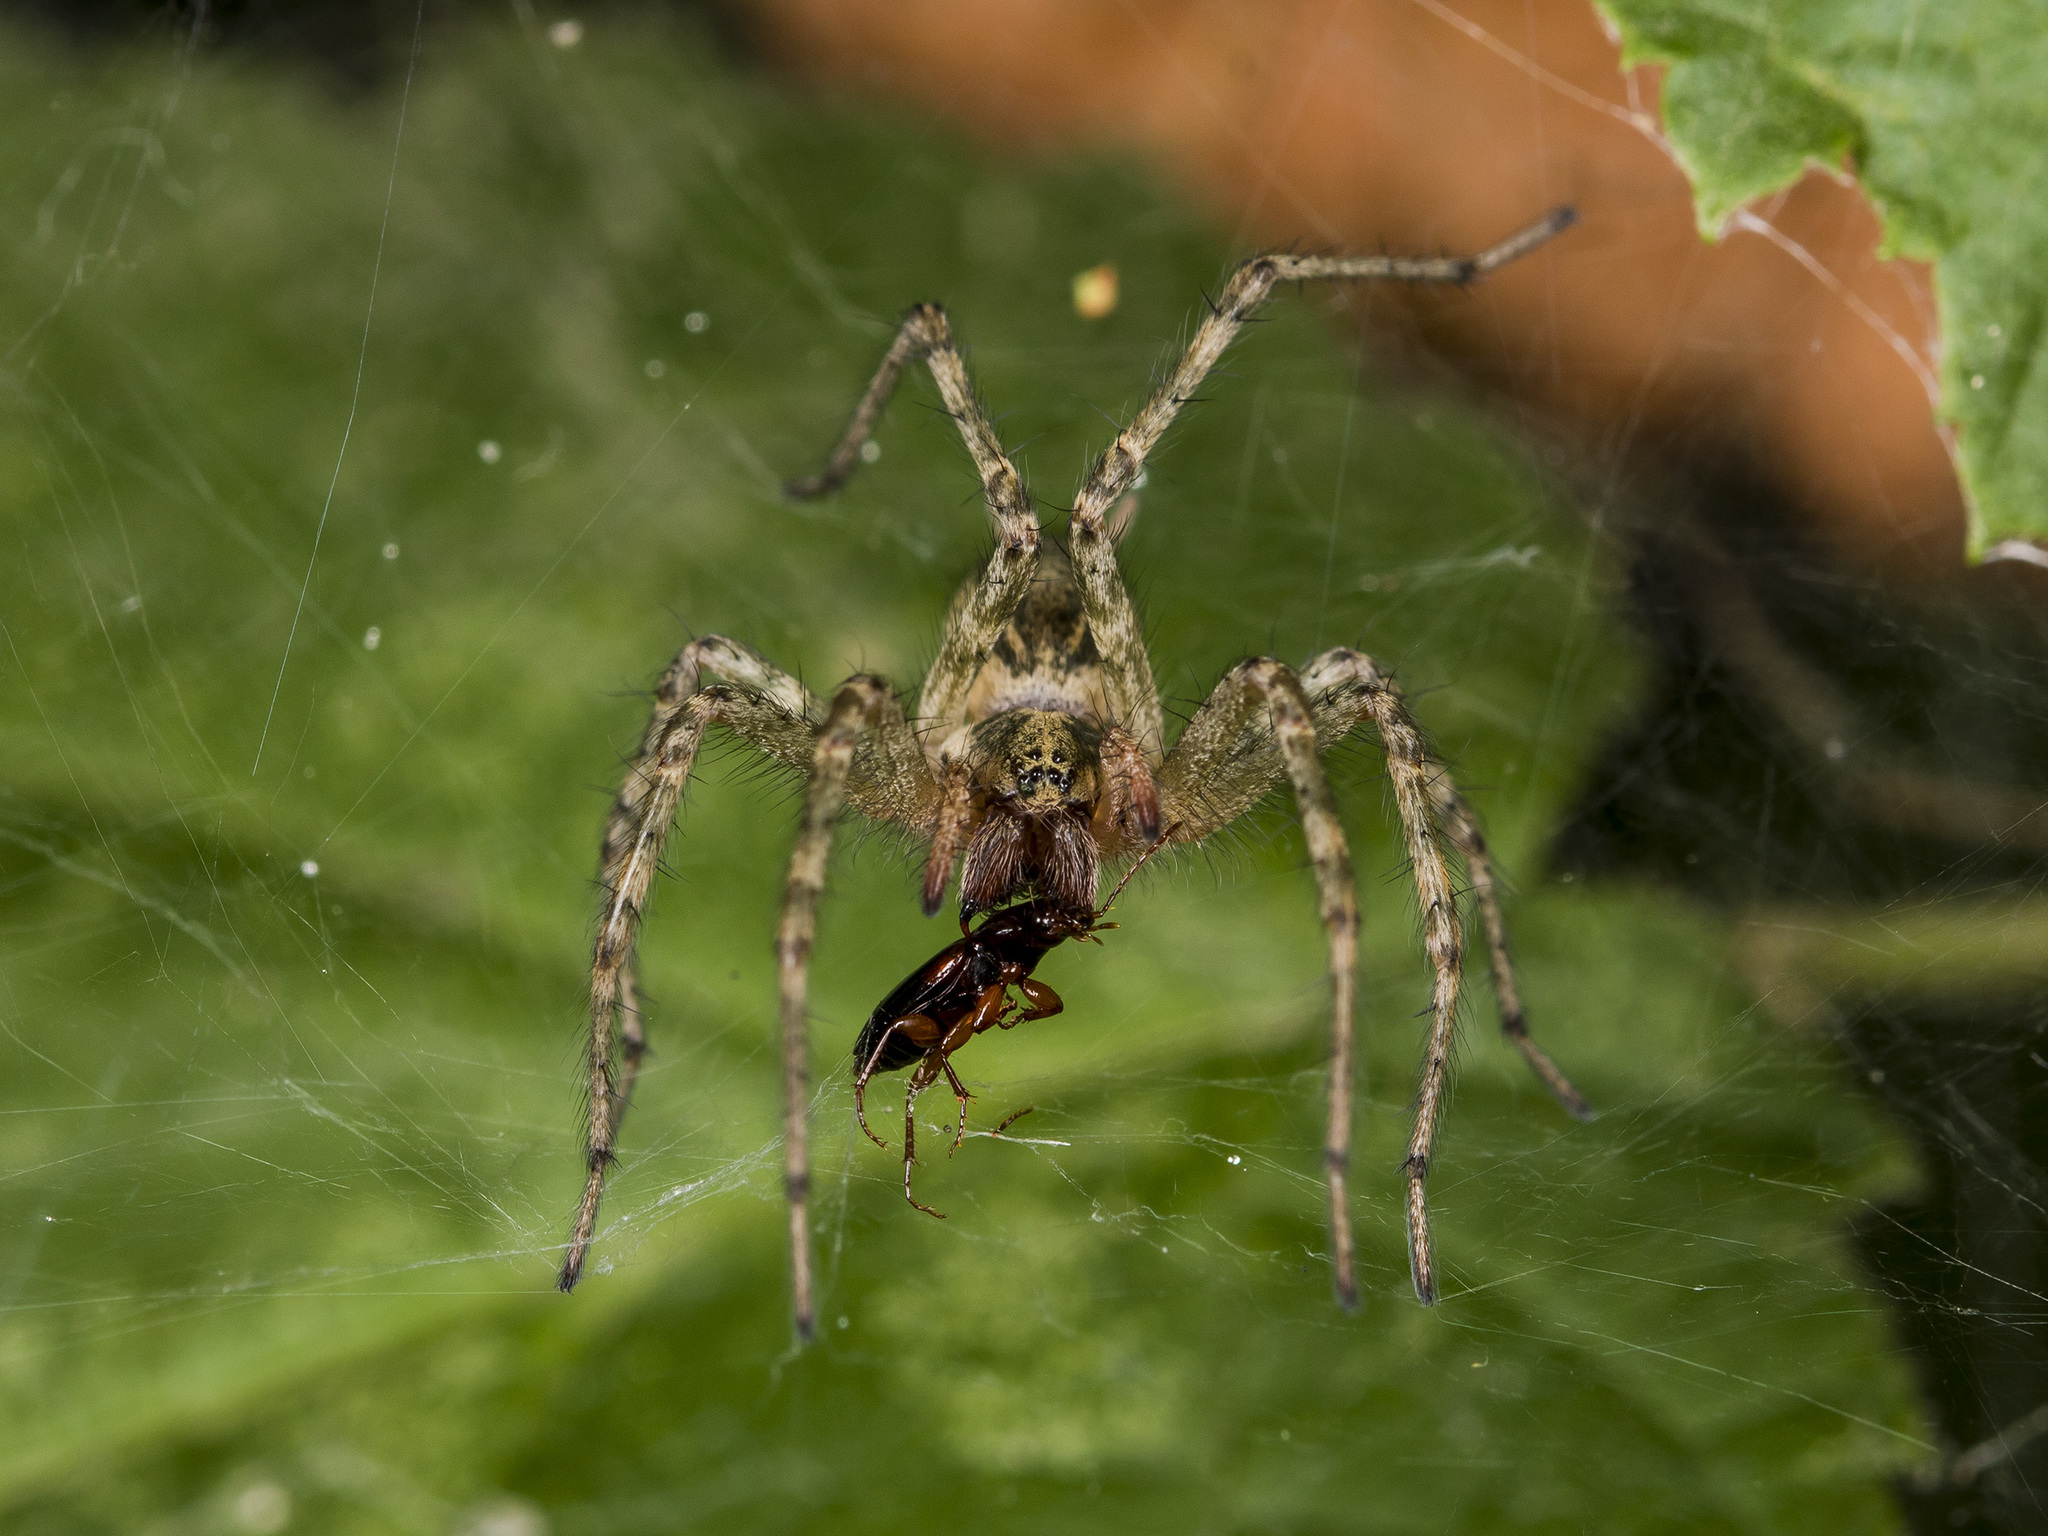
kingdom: Animalia
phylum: Arthropoda
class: Arachnida
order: Araneae
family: Agelenidae
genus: Allagelena
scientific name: Allagelena gracilens
